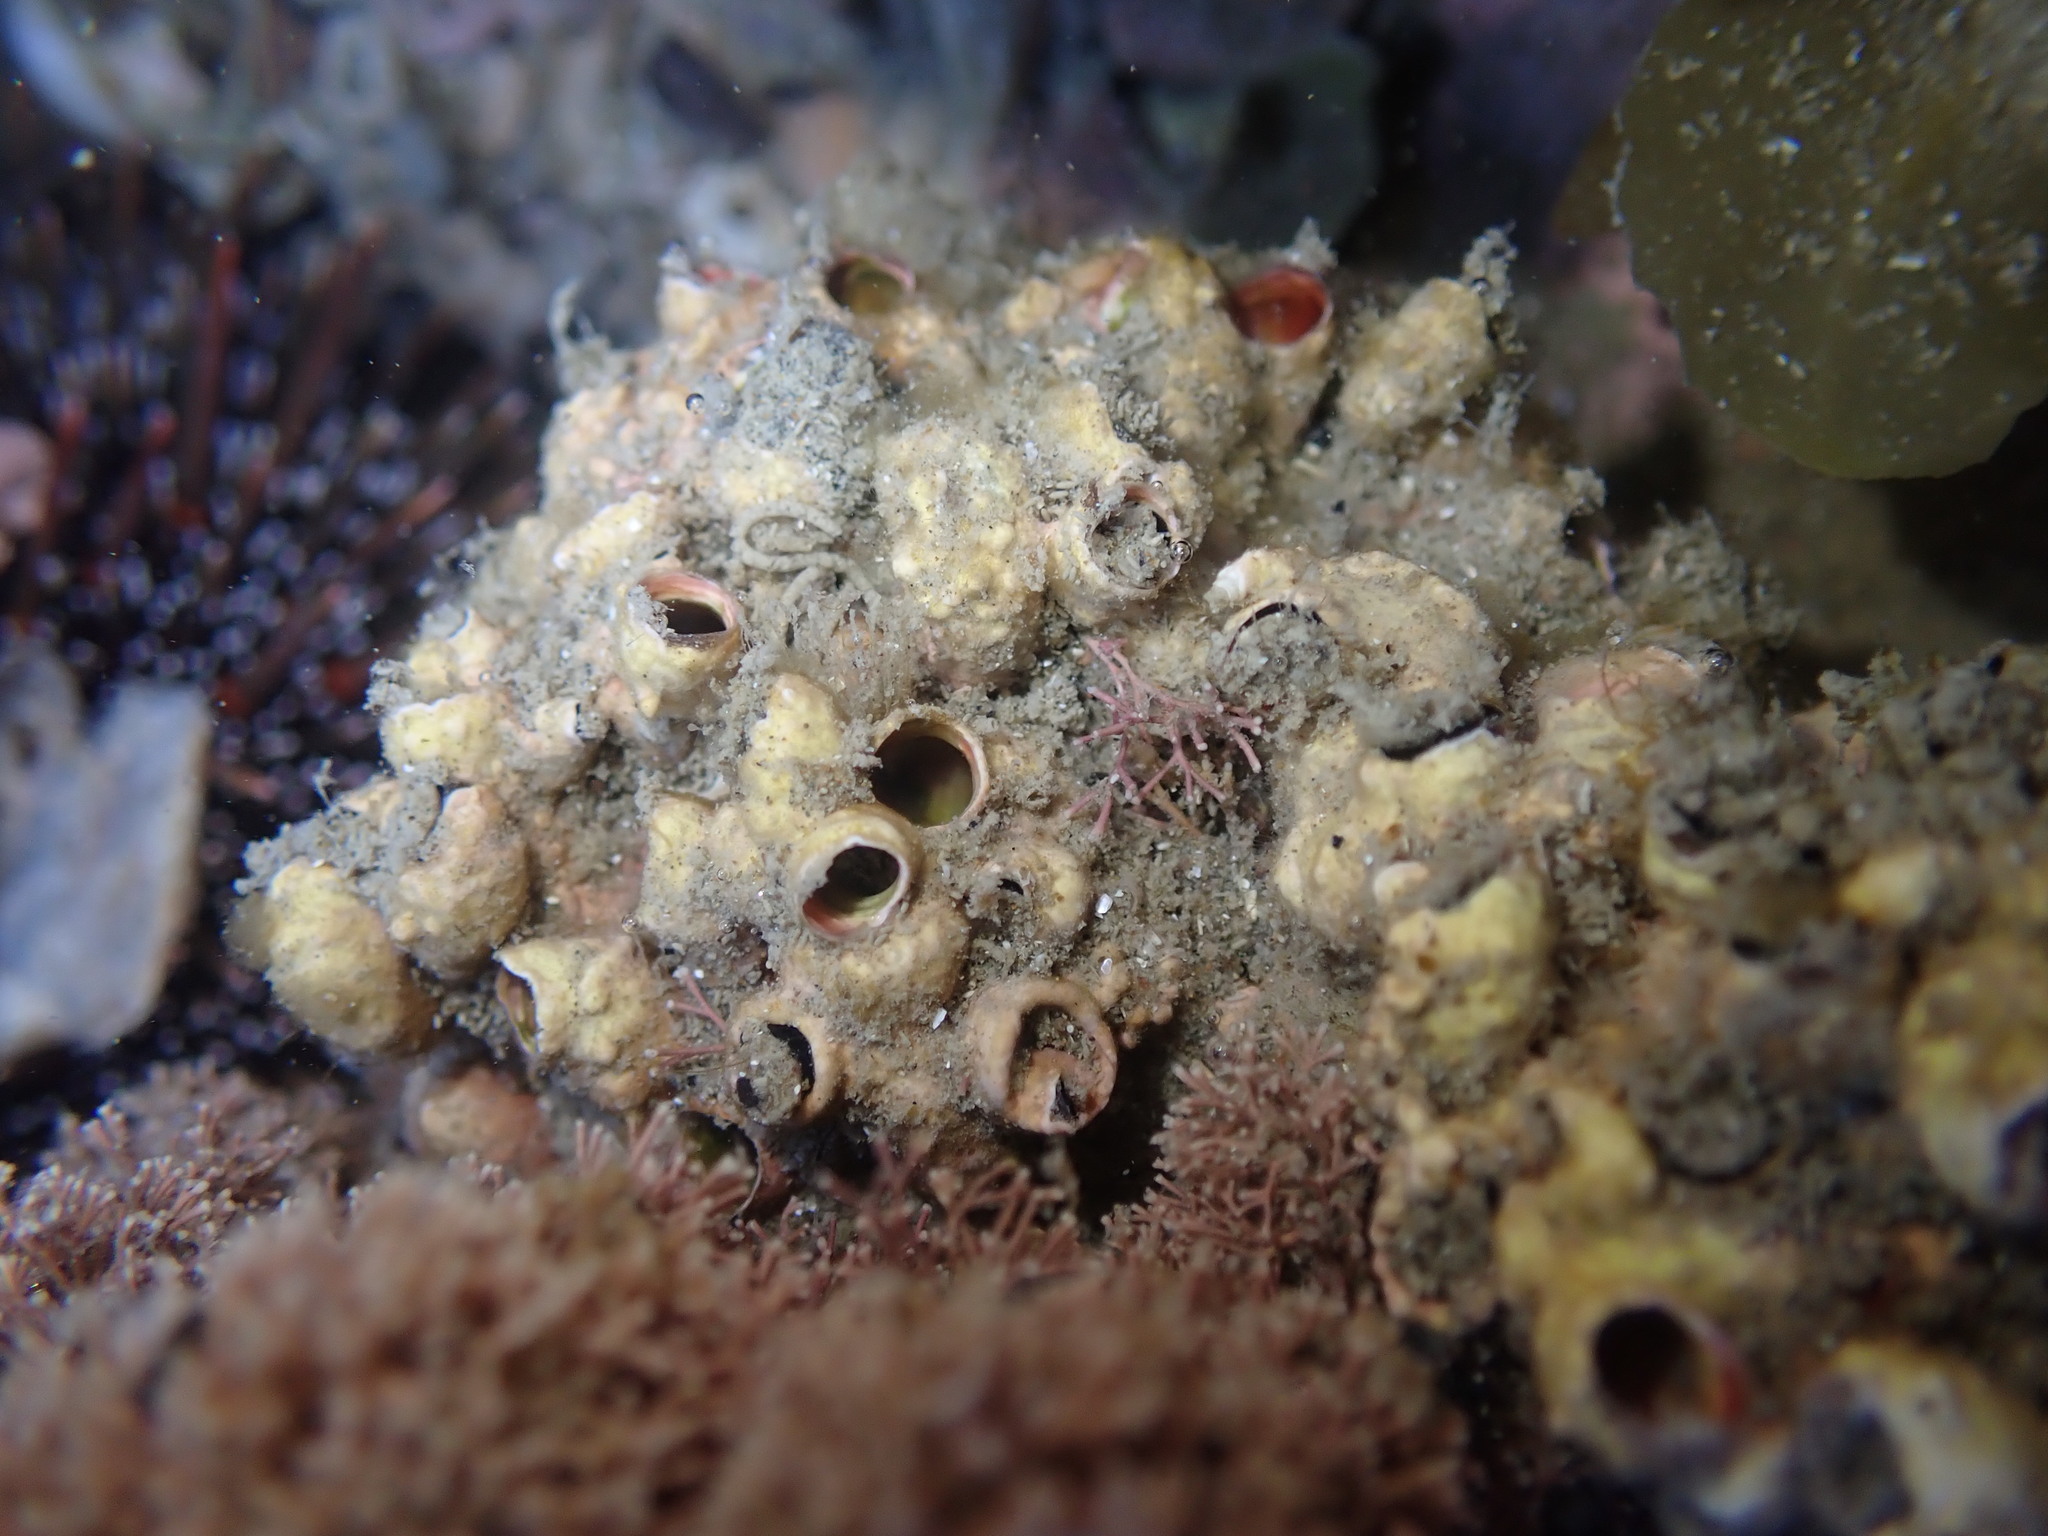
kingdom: Animalia
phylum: Mollusca
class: Gastropoda
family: Siliquariidae
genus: Stephopoma
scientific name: Stephopoma roseum
